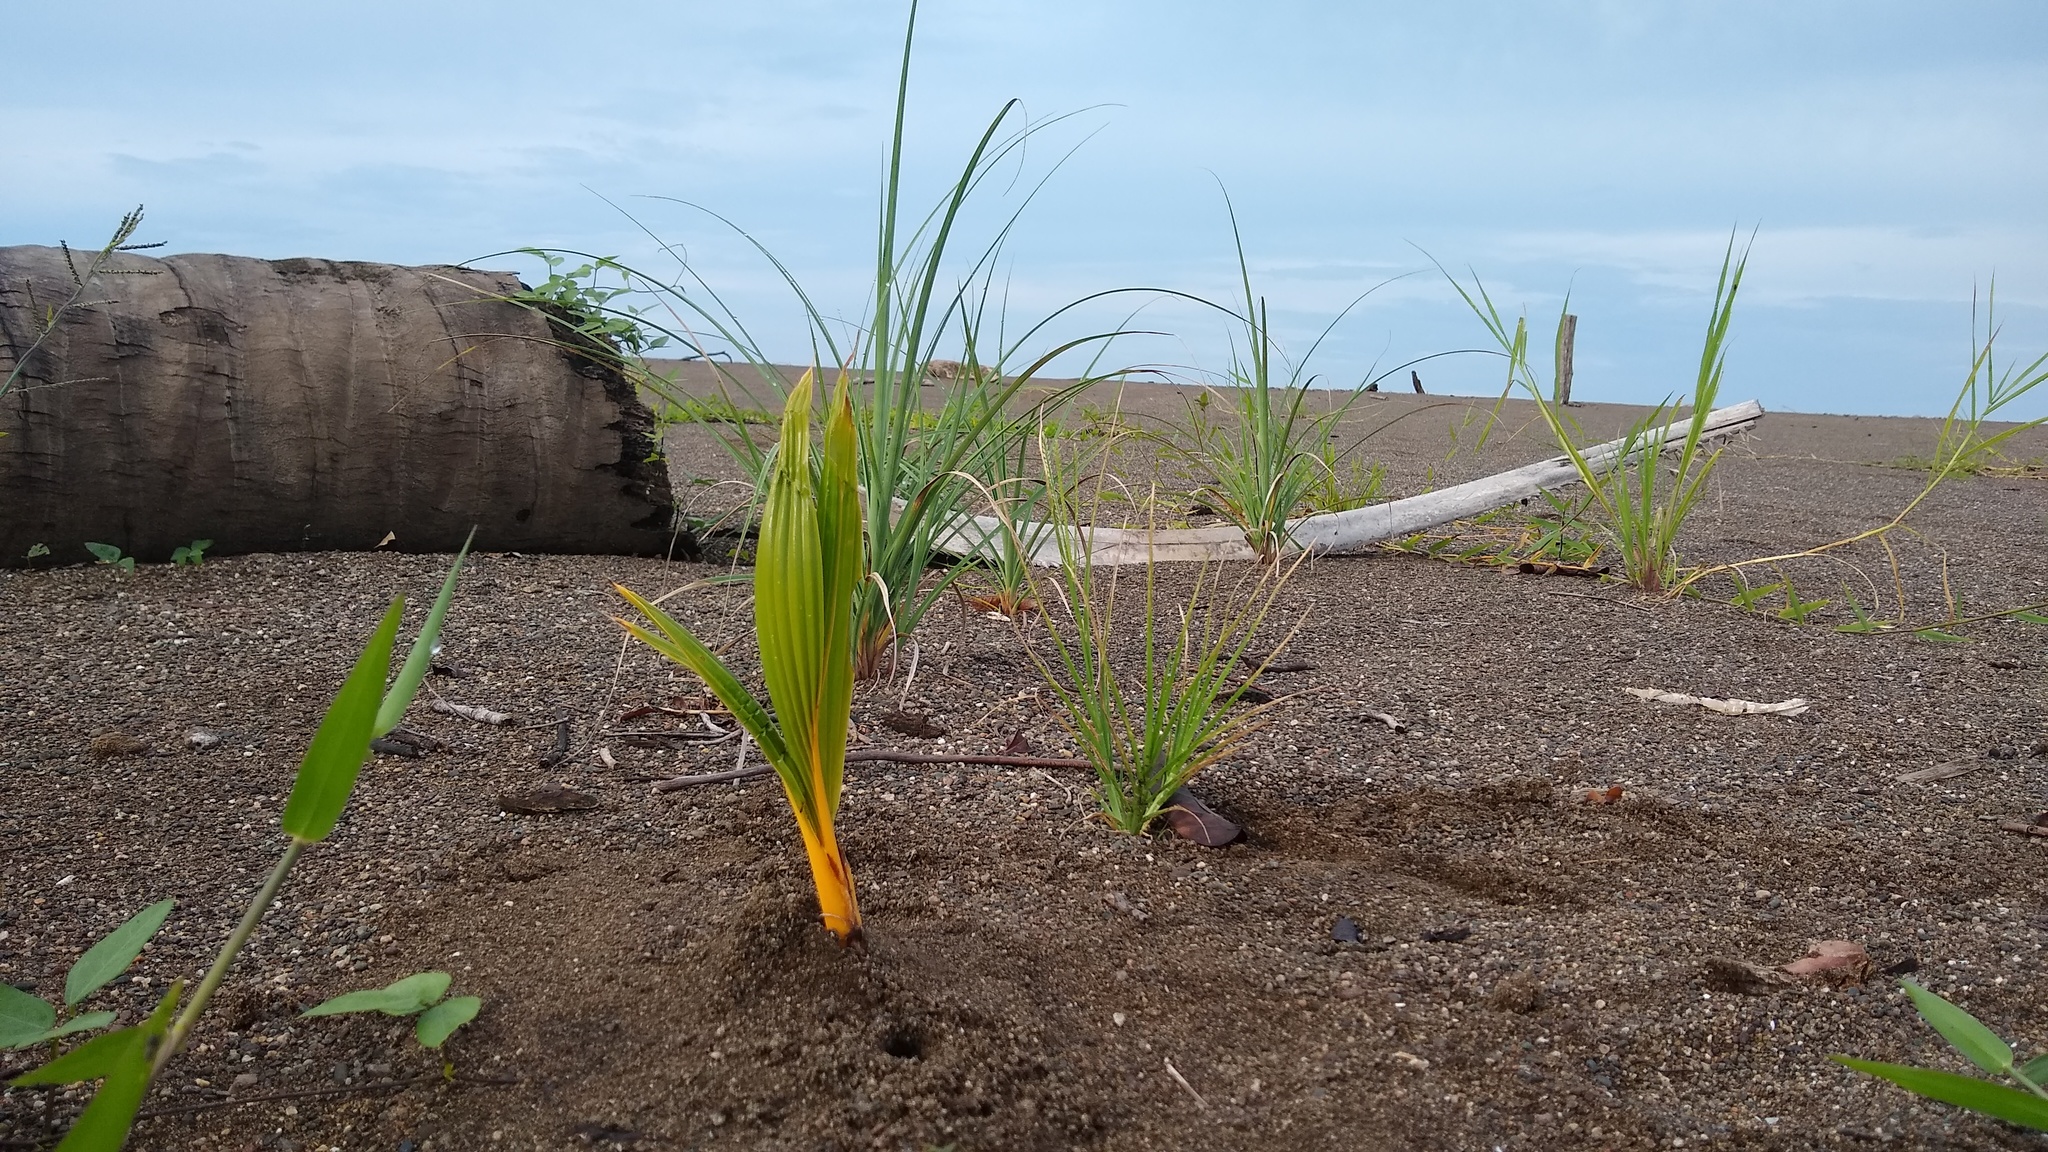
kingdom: Plantae
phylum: Tracheophyta
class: Liliopsida
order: Arecales
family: Arecaceae
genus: Cocos
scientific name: Cocos nucifera
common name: Coconut palm
